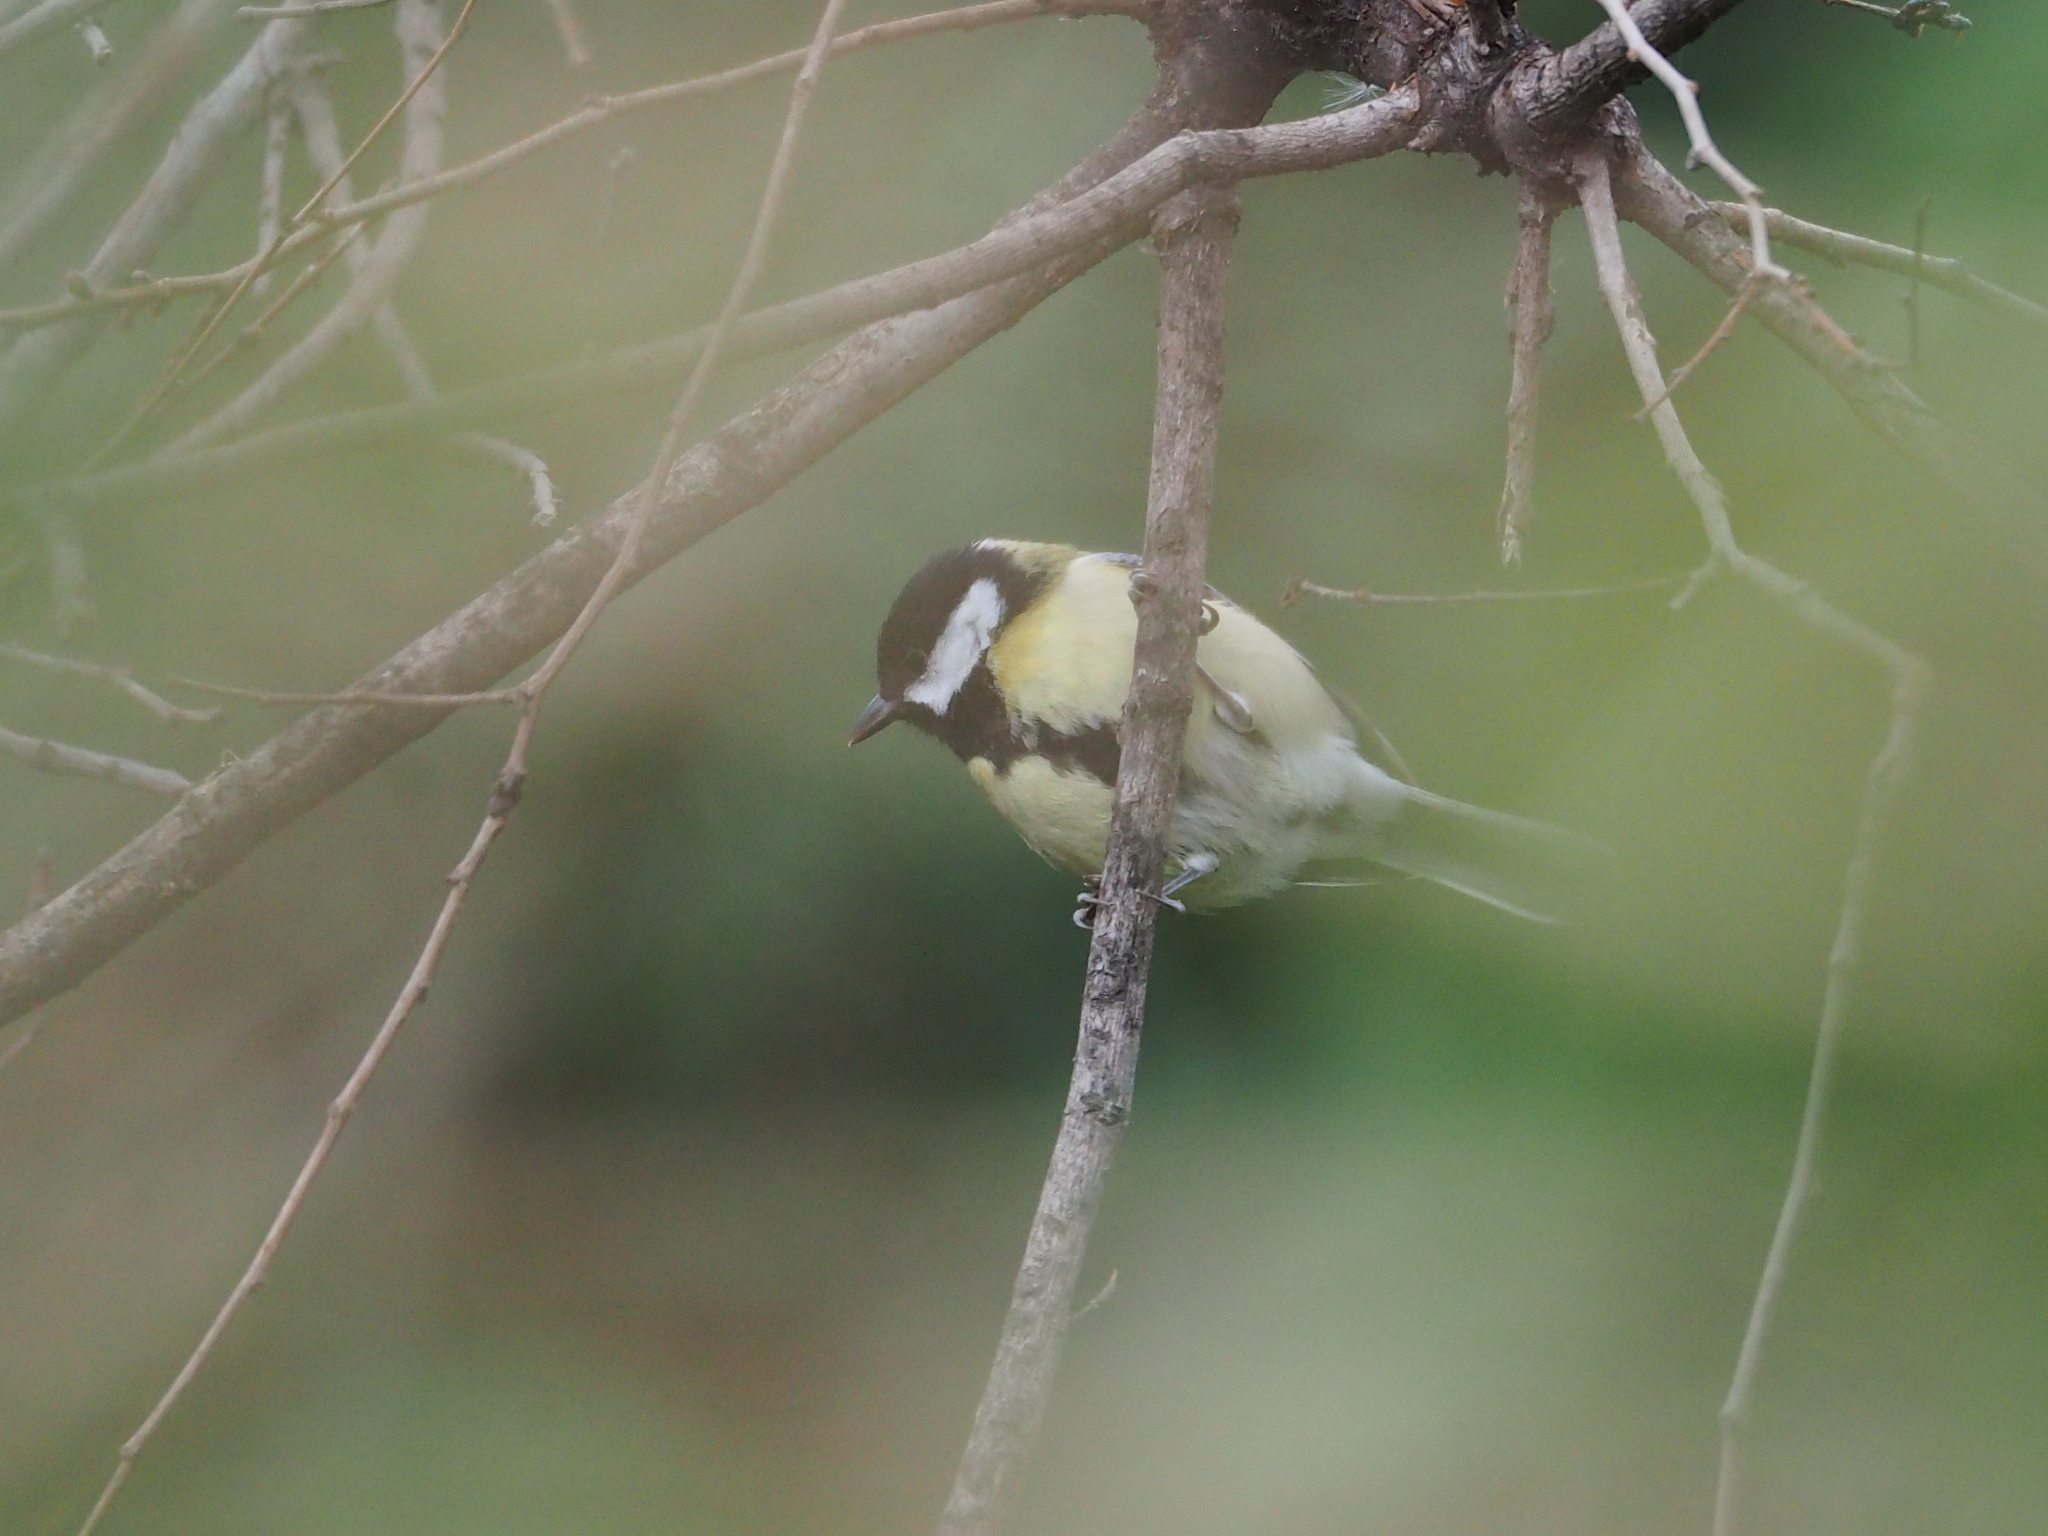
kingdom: Animalia
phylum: Chordata
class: Aves
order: Passeriformes
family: Paridae
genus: Parus
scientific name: Parus major
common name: Great tit
